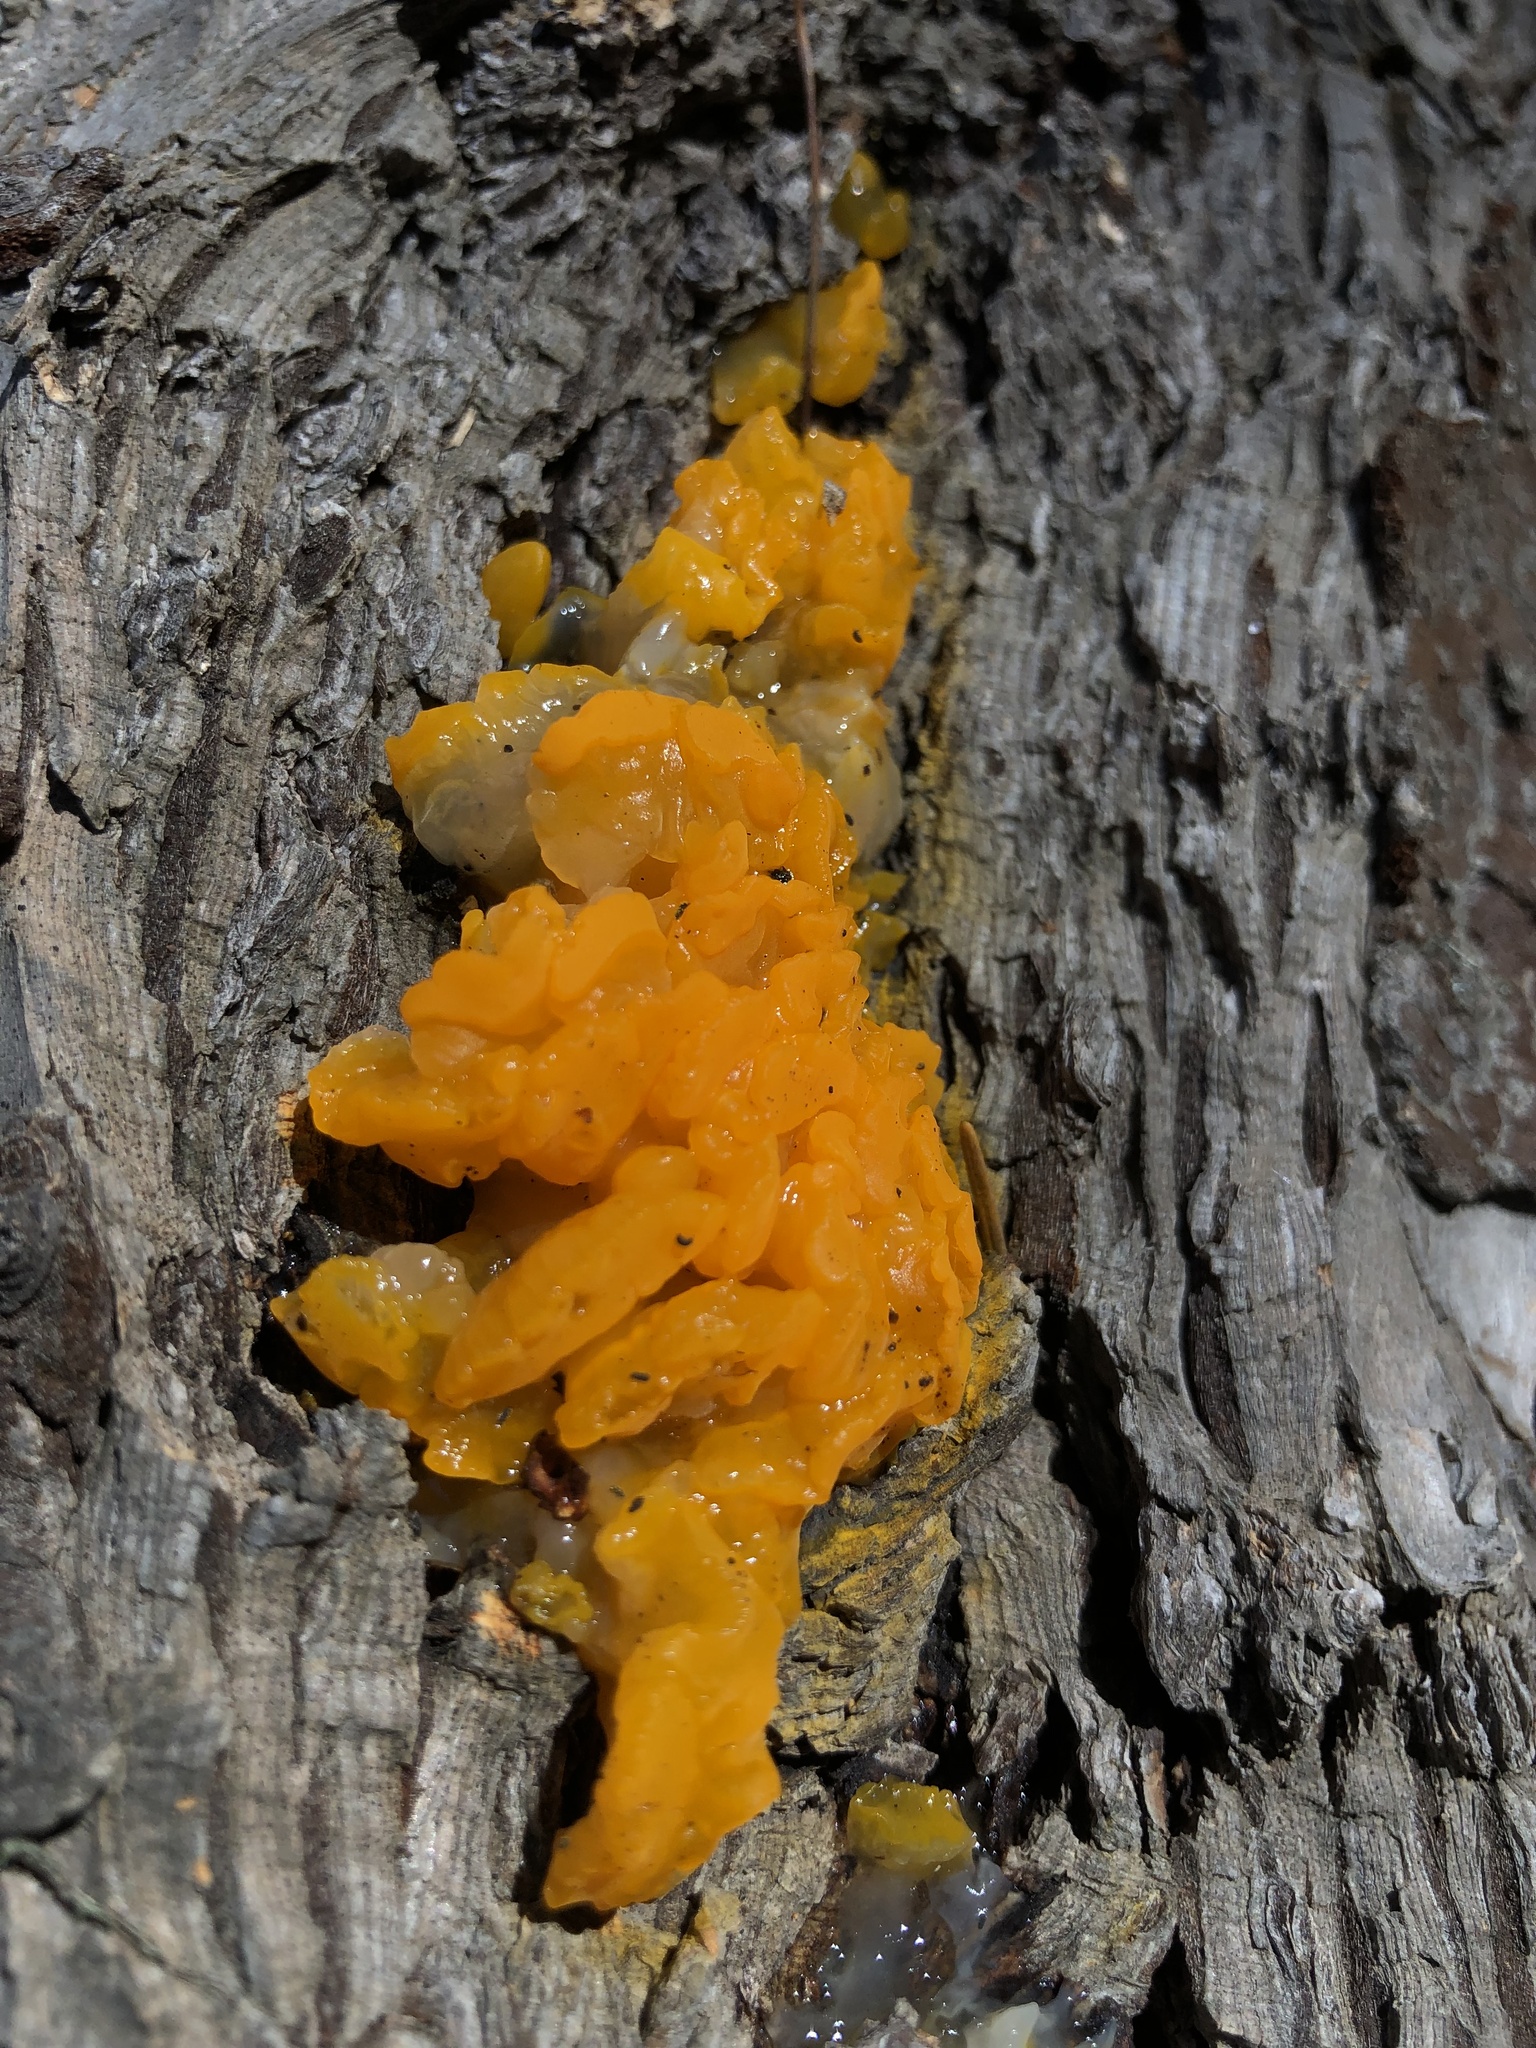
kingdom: Fungi
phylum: Basidiomycota
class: Dacrymycetes
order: Dacrymycetales
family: Dacrymycetaceae
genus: Dacrymyces
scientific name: Dacrymyces dictyosporus
